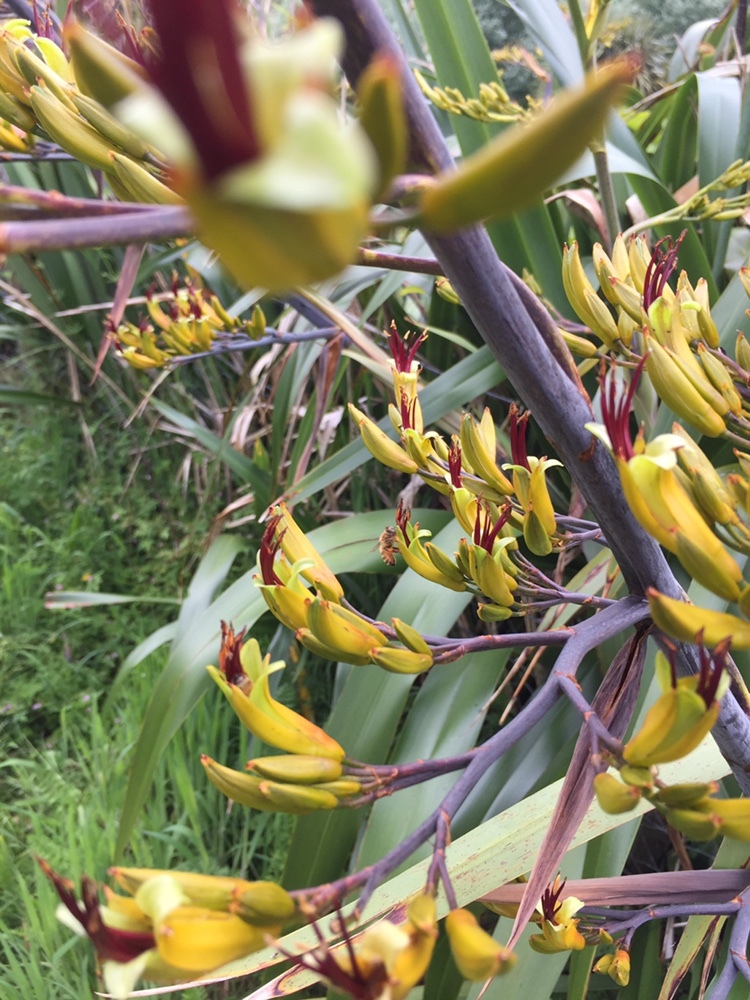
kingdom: Plantae
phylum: Tracheophyta
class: Liliopsida
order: Asparagales
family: Asphodelaceae
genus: Phormium
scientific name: Phormium colensoi
